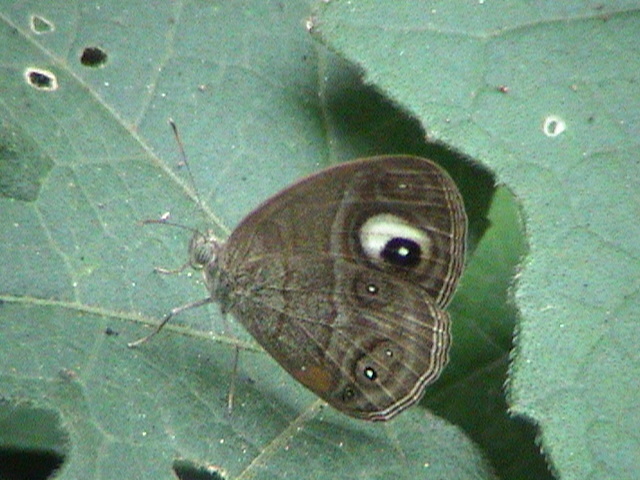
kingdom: Animalia
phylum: Arthropoda
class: Insecta
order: Lepidoptera
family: Nymphalidae
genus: Mycalesis
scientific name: Mycalesis patnia
